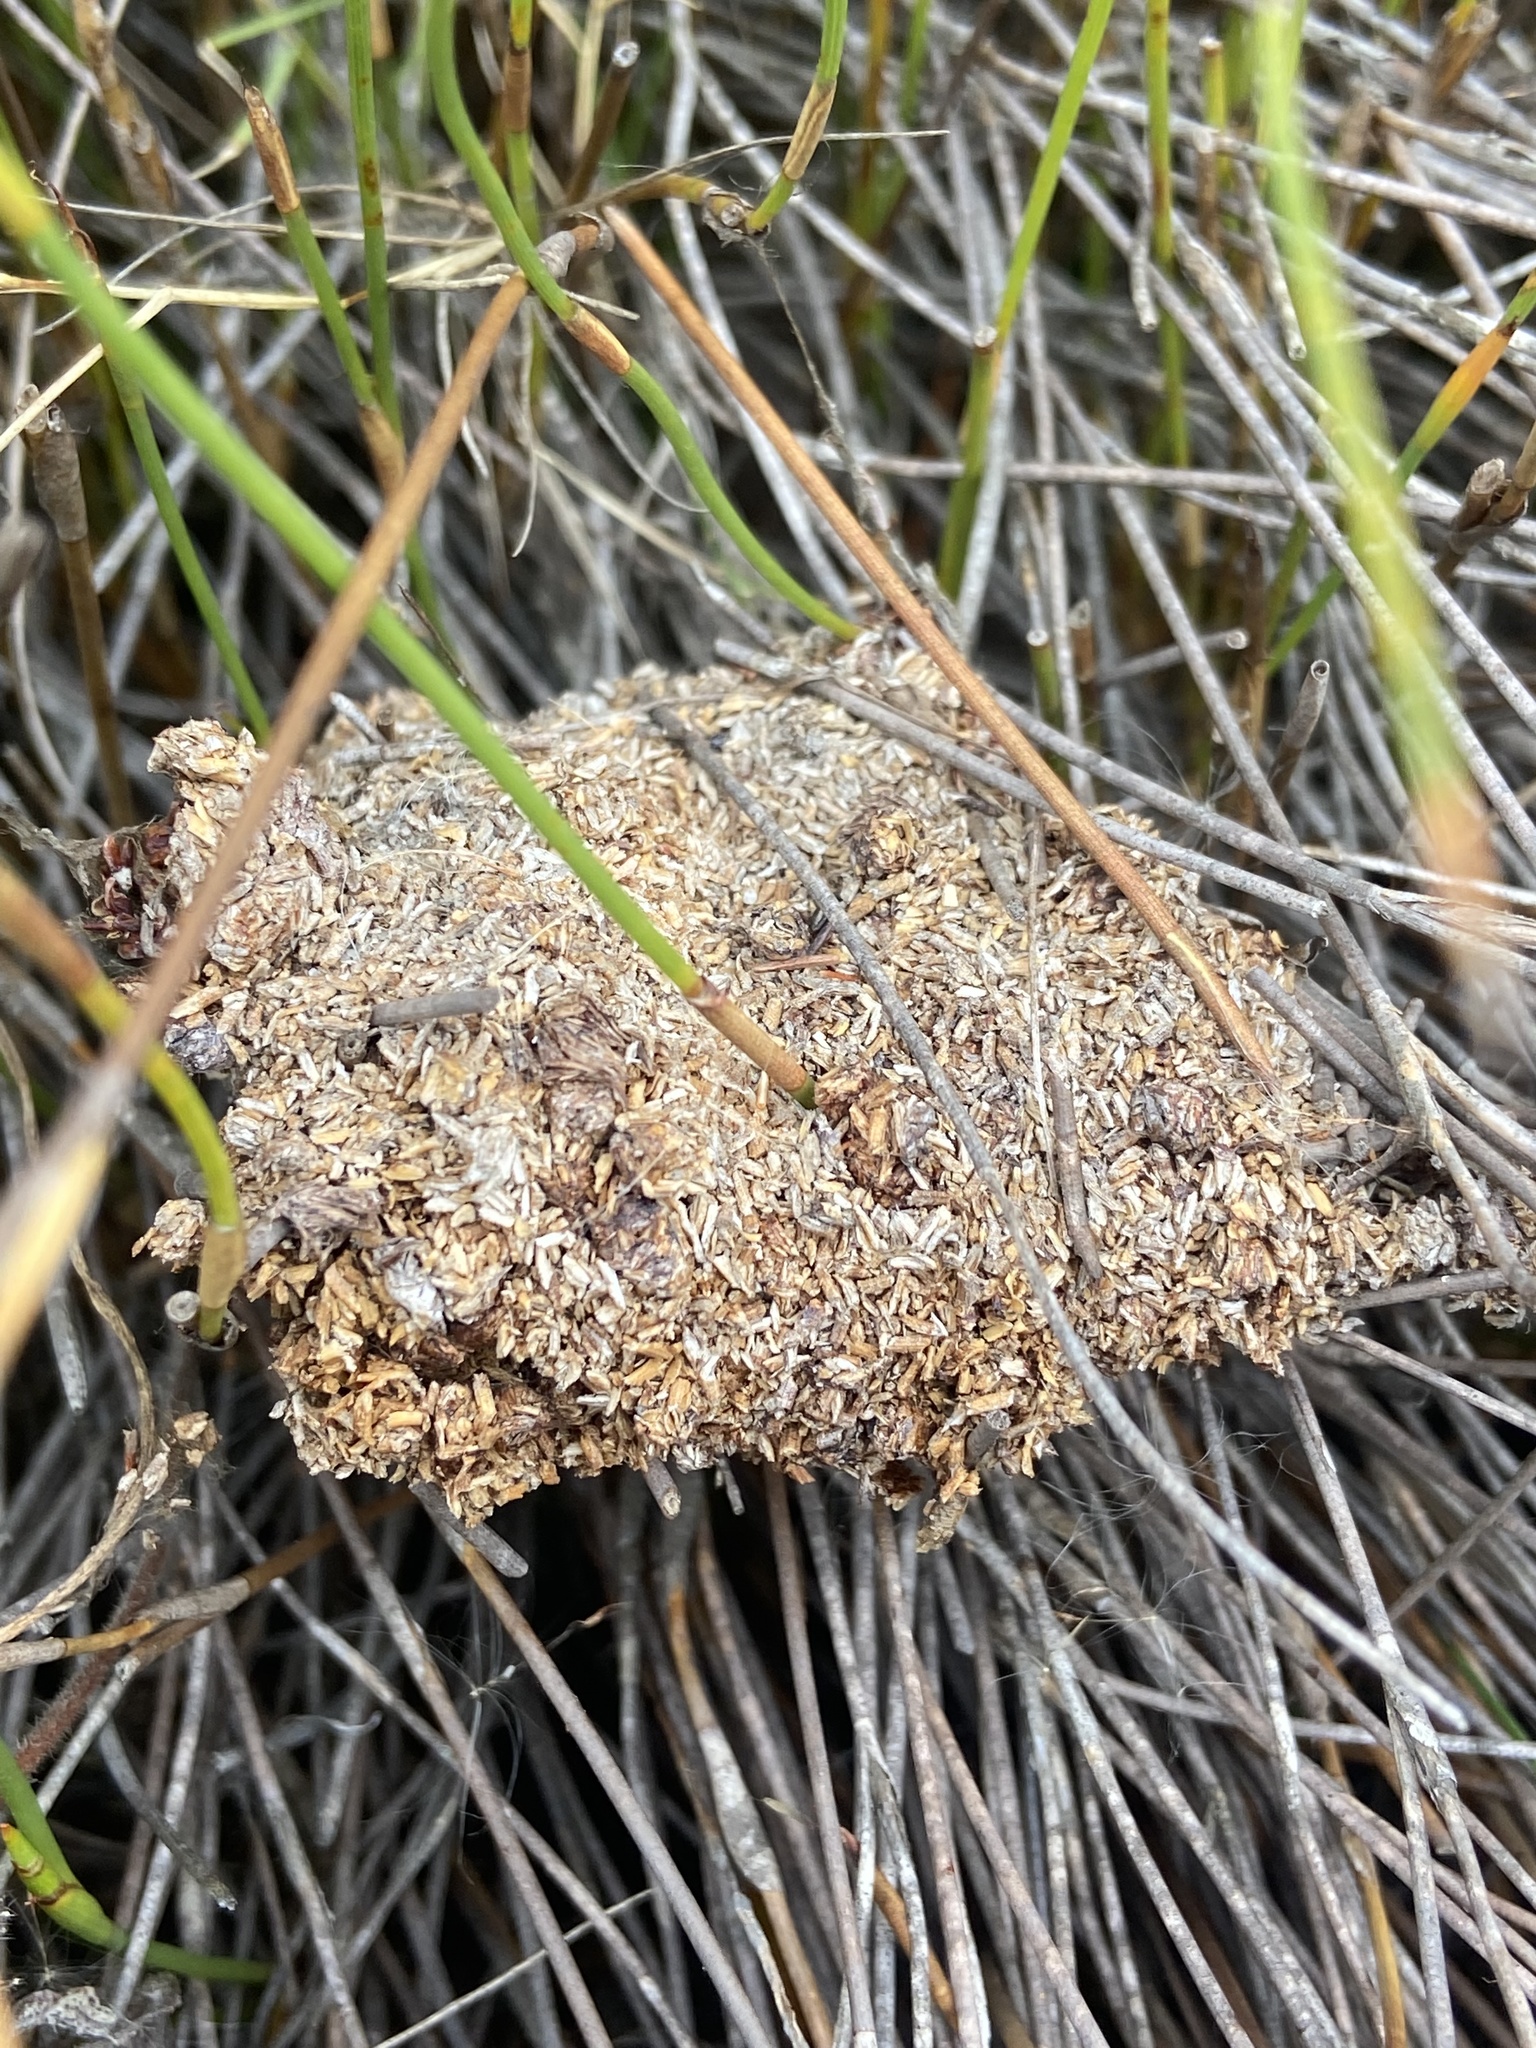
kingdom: Animalia
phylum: Arthropoda
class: Insecta
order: Hymenoptera
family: Formicidae
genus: Crematogaster
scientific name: Crematogaster peringueyi
